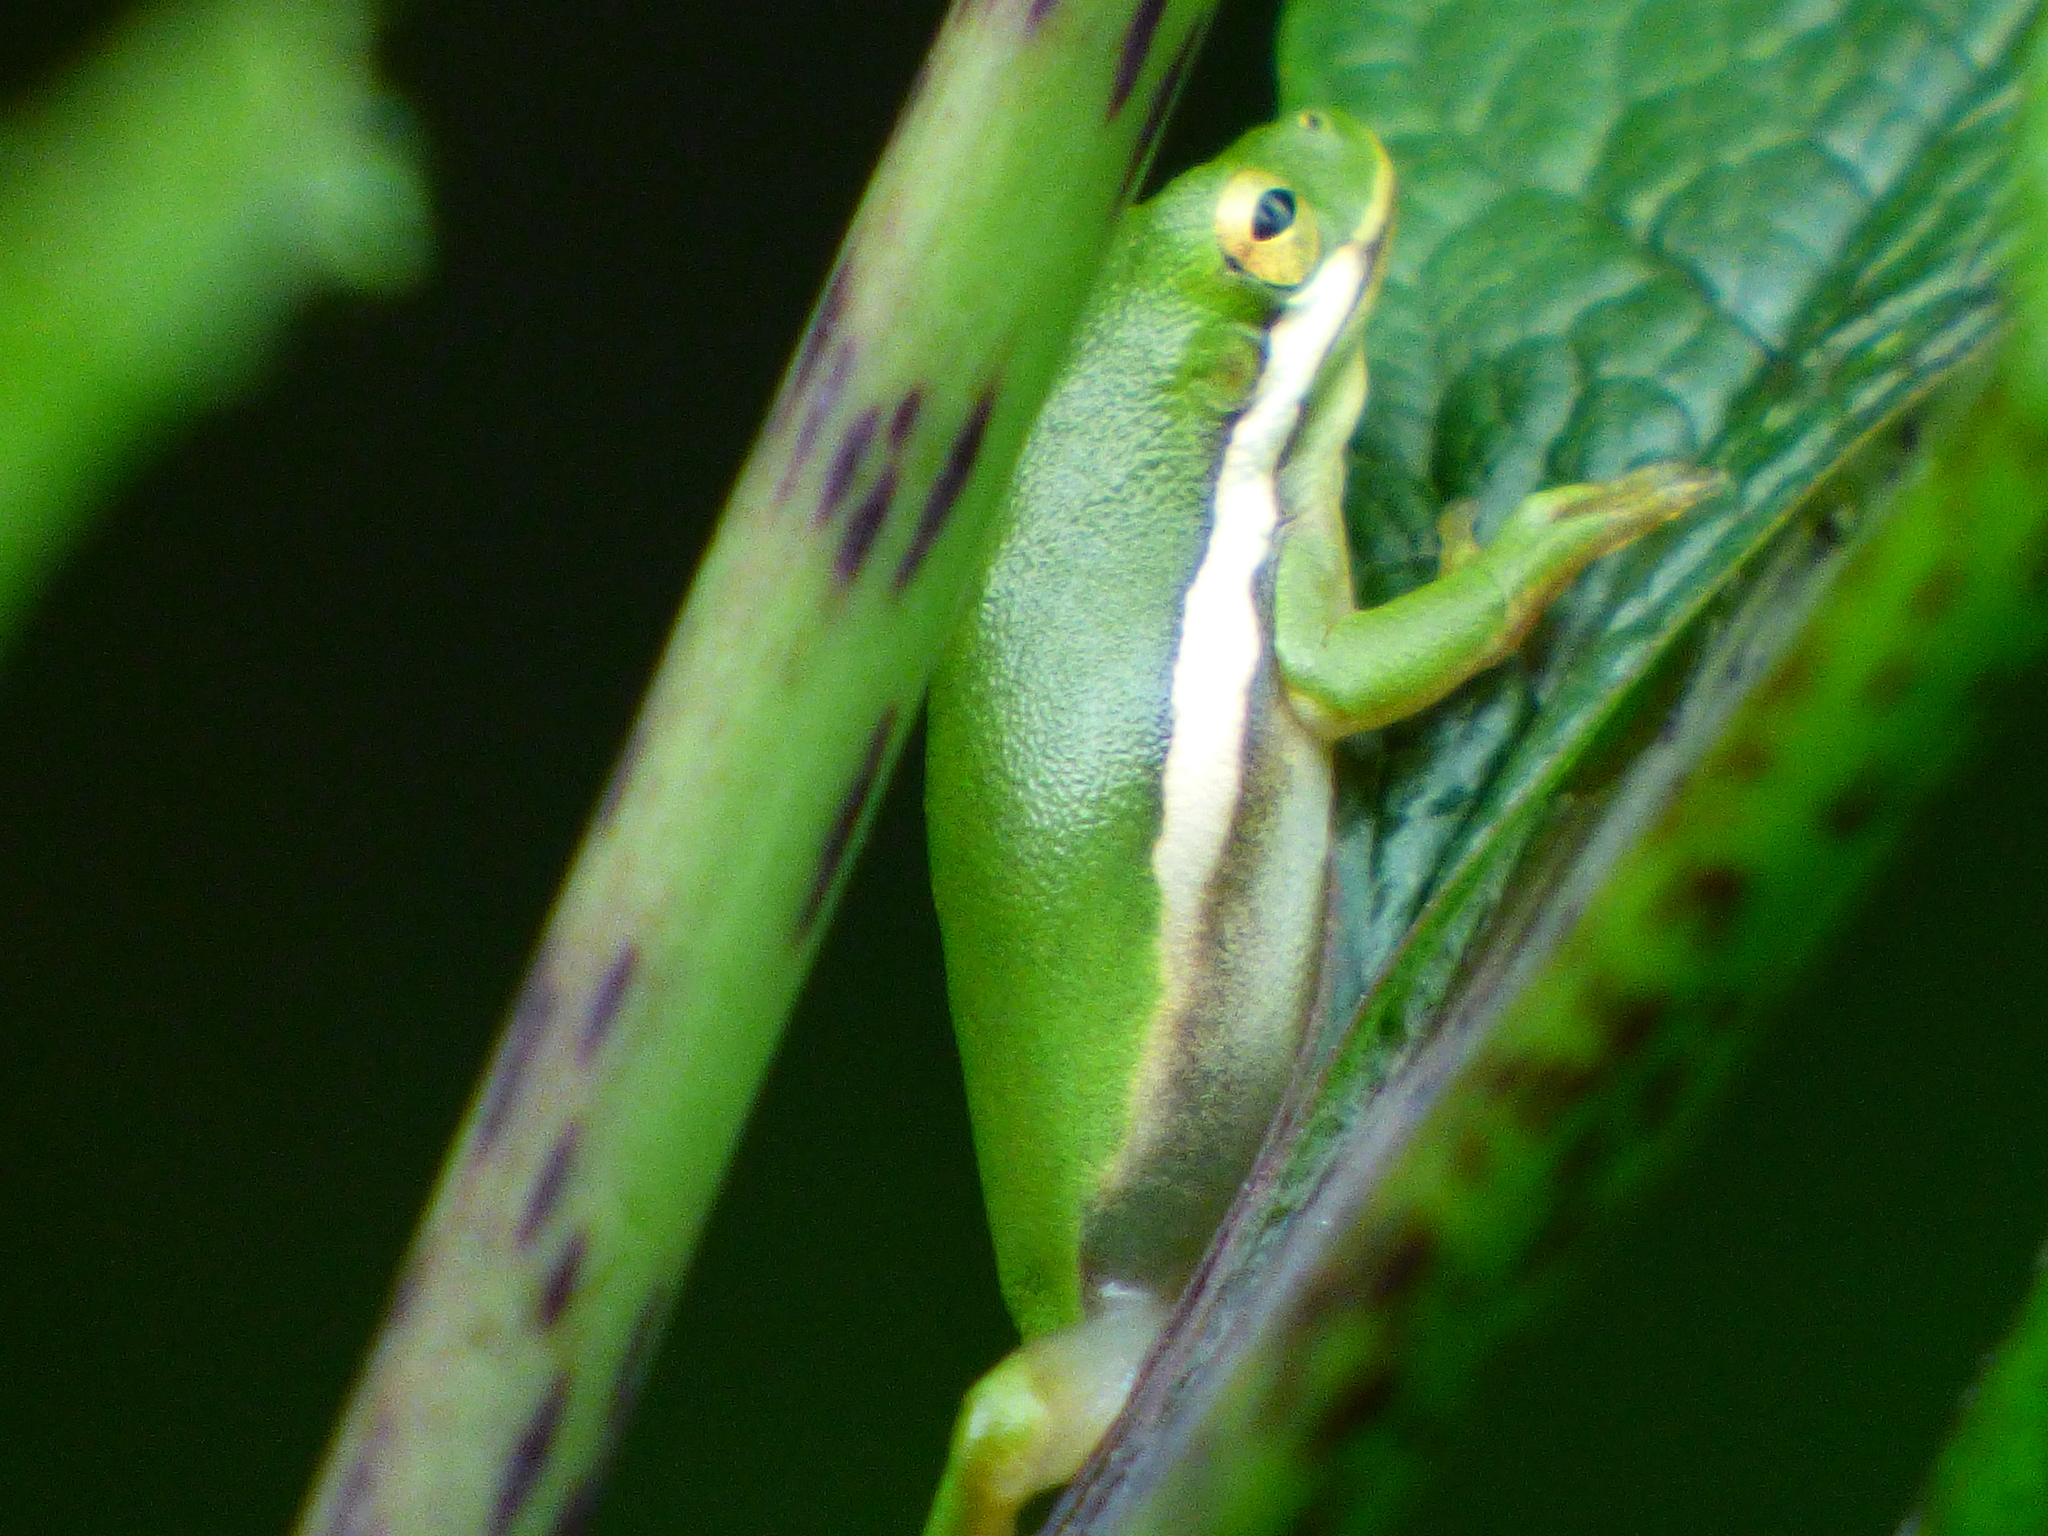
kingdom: Animalia
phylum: Chordata
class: Amphibia
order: Anura
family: Hylidae
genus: Dryophytes
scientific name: Dryophytes cinereus
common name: Green treefrog
